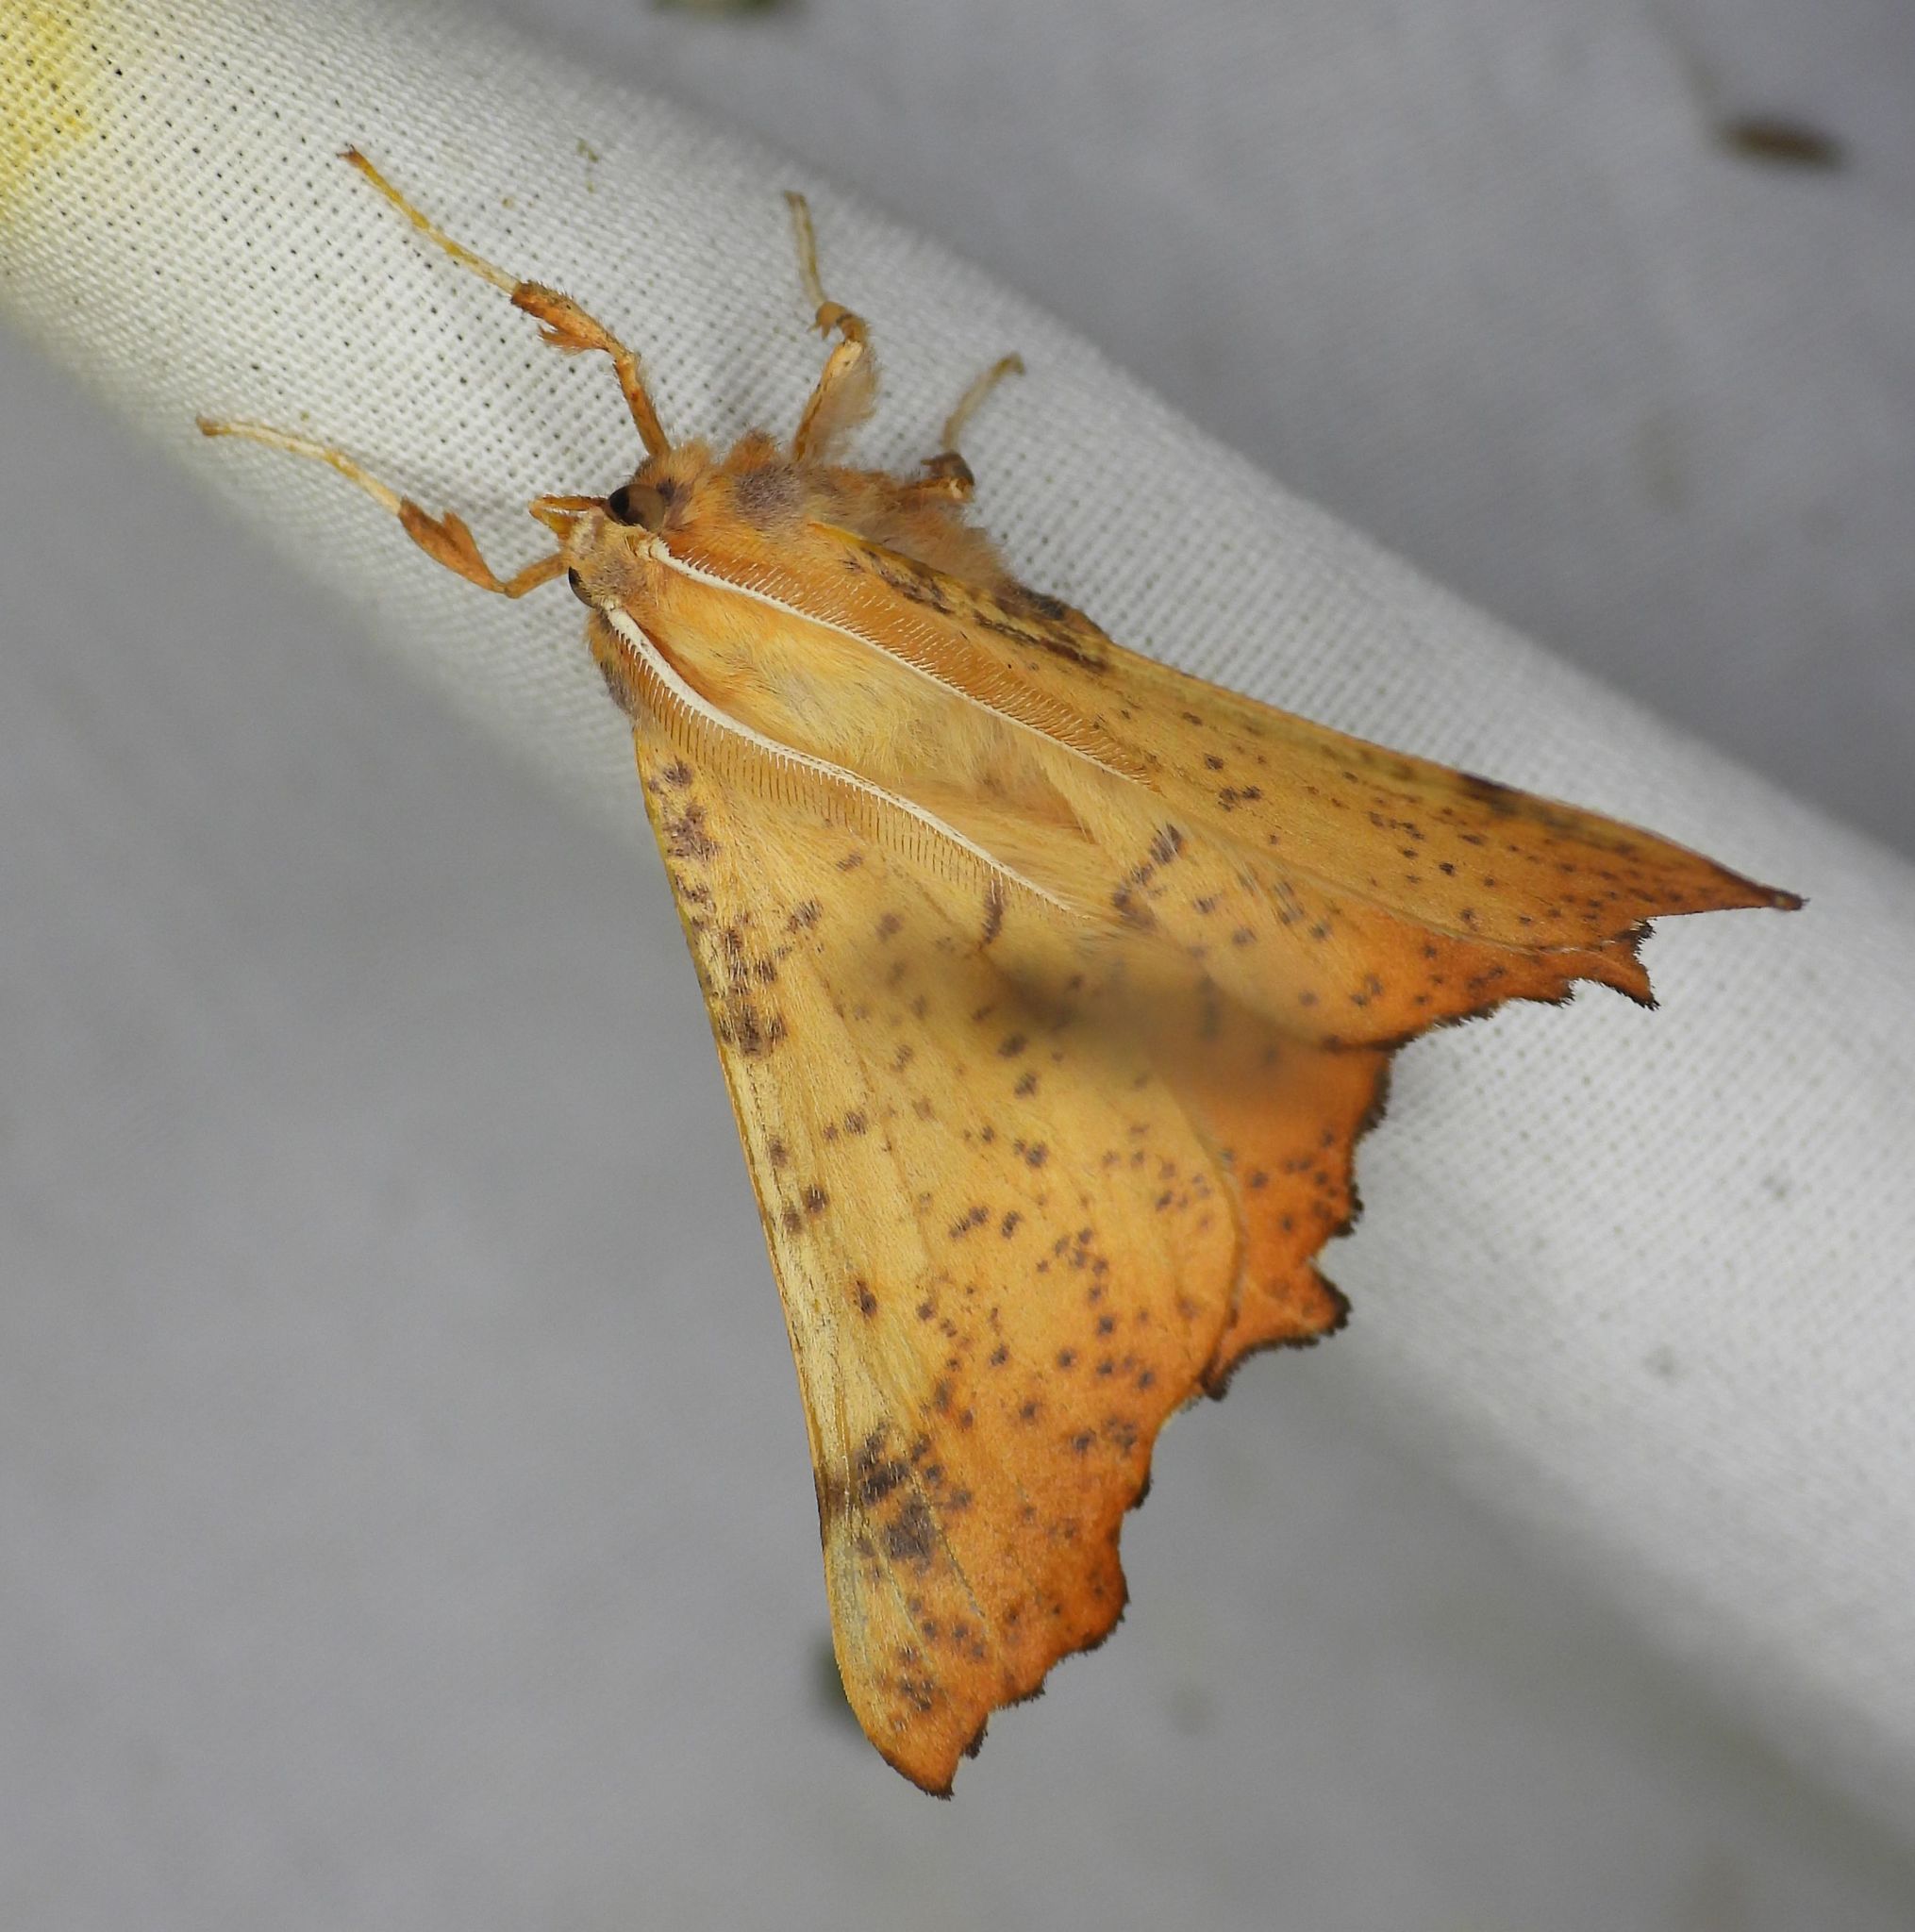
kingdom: Animalia
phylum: Arthropoda
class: Insecta
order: Lepidoptera
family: Geometridae
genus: Ennomos
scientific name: Ennomos magnaria
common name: Maple spanworm
